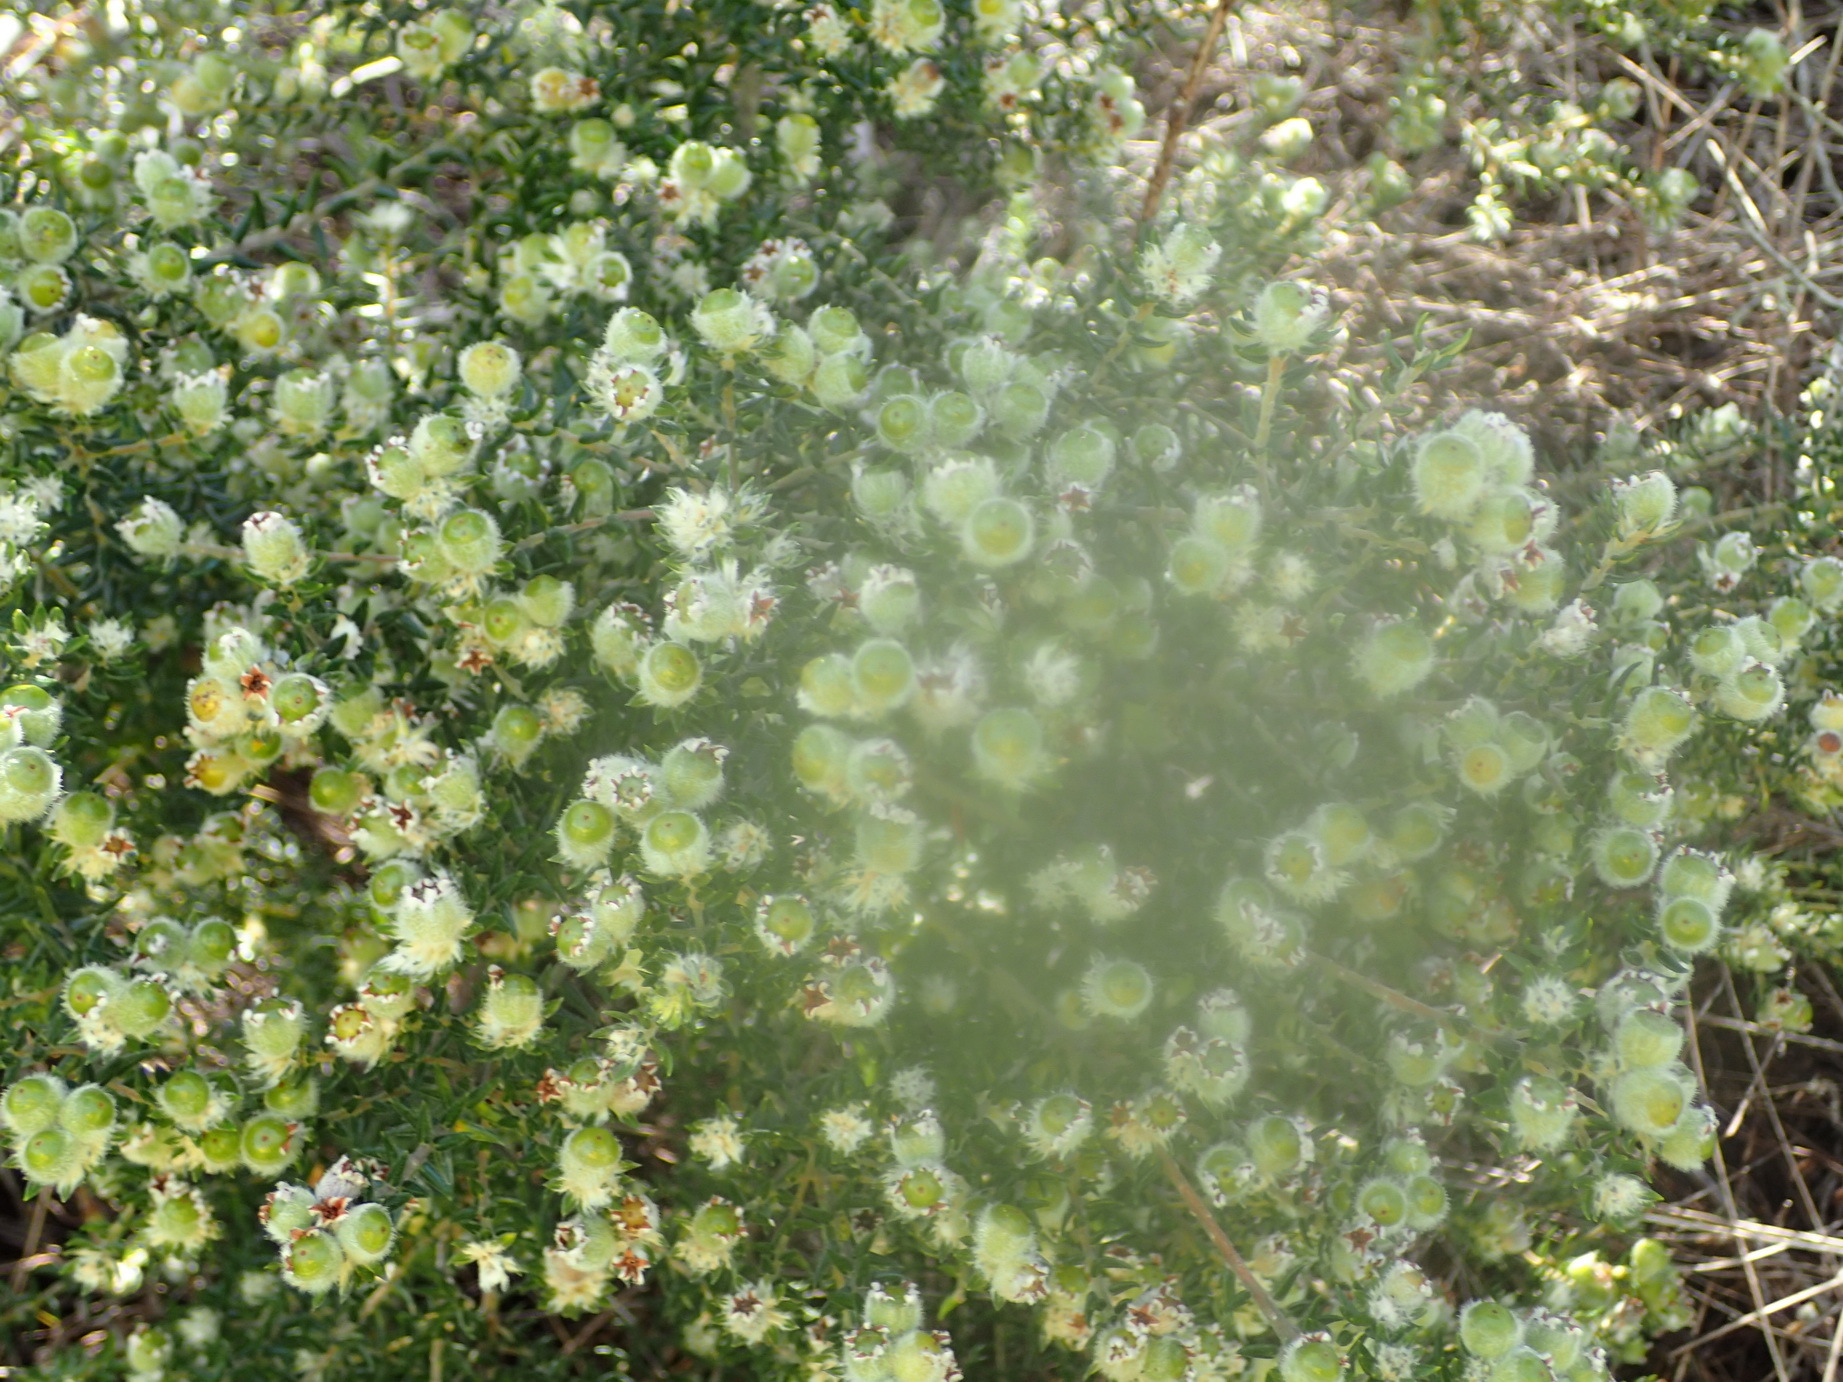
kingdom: Plantae
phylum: Tracheophyta
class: Magnoliopsida
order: Rosales
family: Rhamnaceae
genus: Phylica
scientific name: Phylica purpurea
